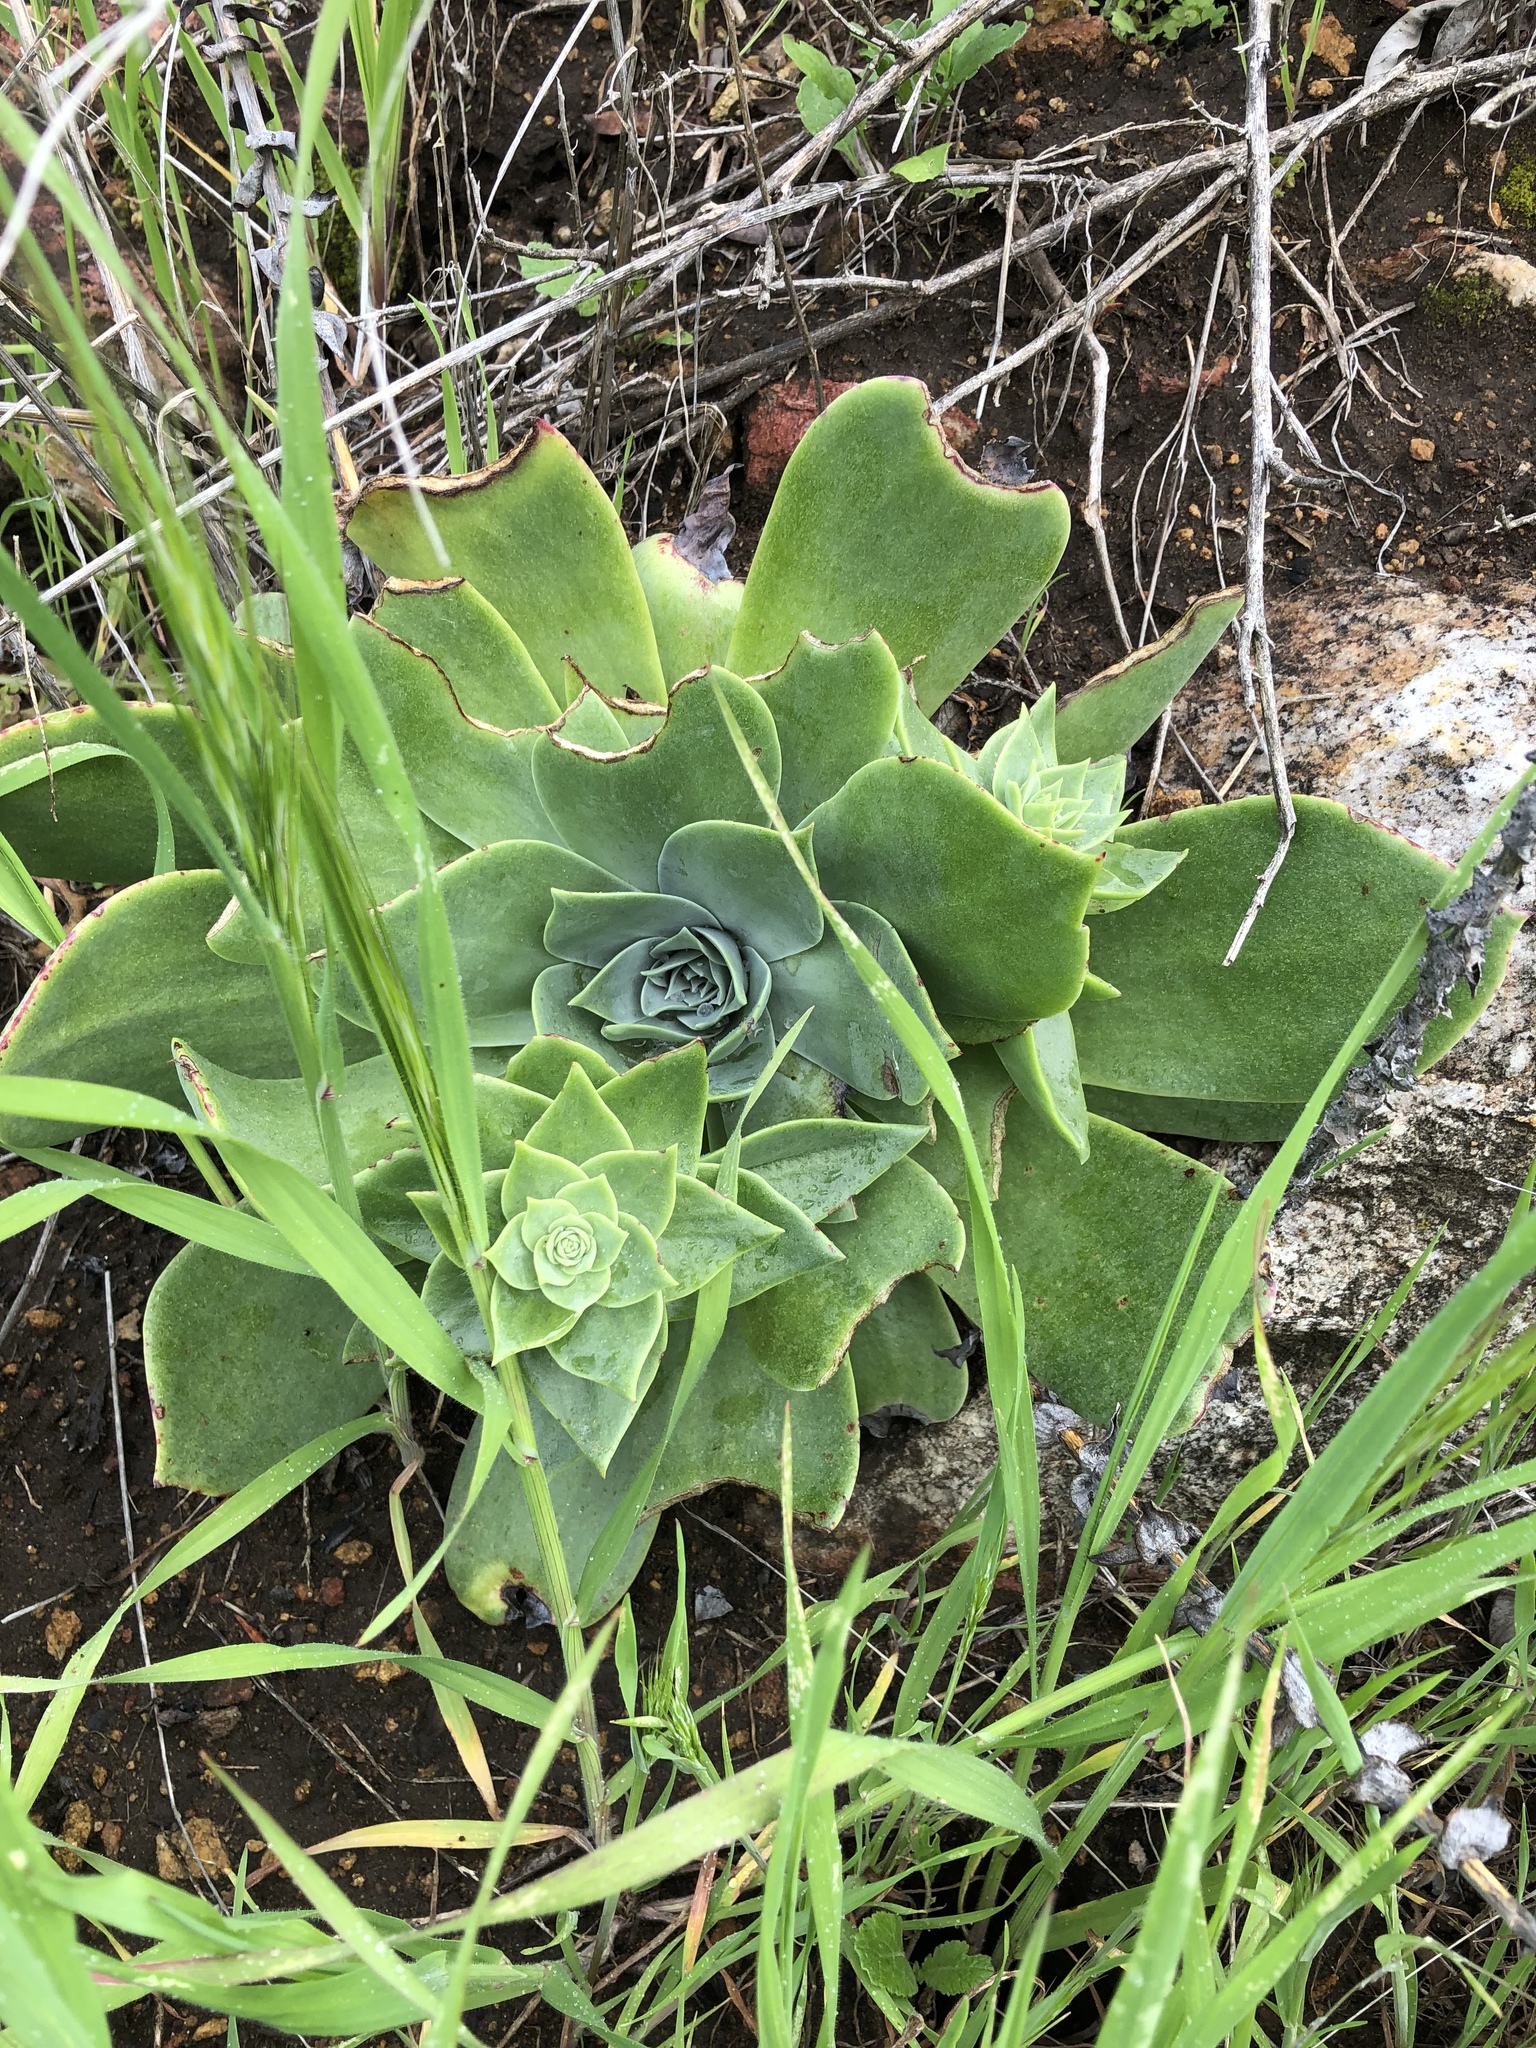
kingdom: Plantae
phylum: Tracheophyta
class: Magnoliopsida
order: Saxifragales
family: Crassulaceae
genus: Dudleya
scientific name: Dudleya pulverulenta
